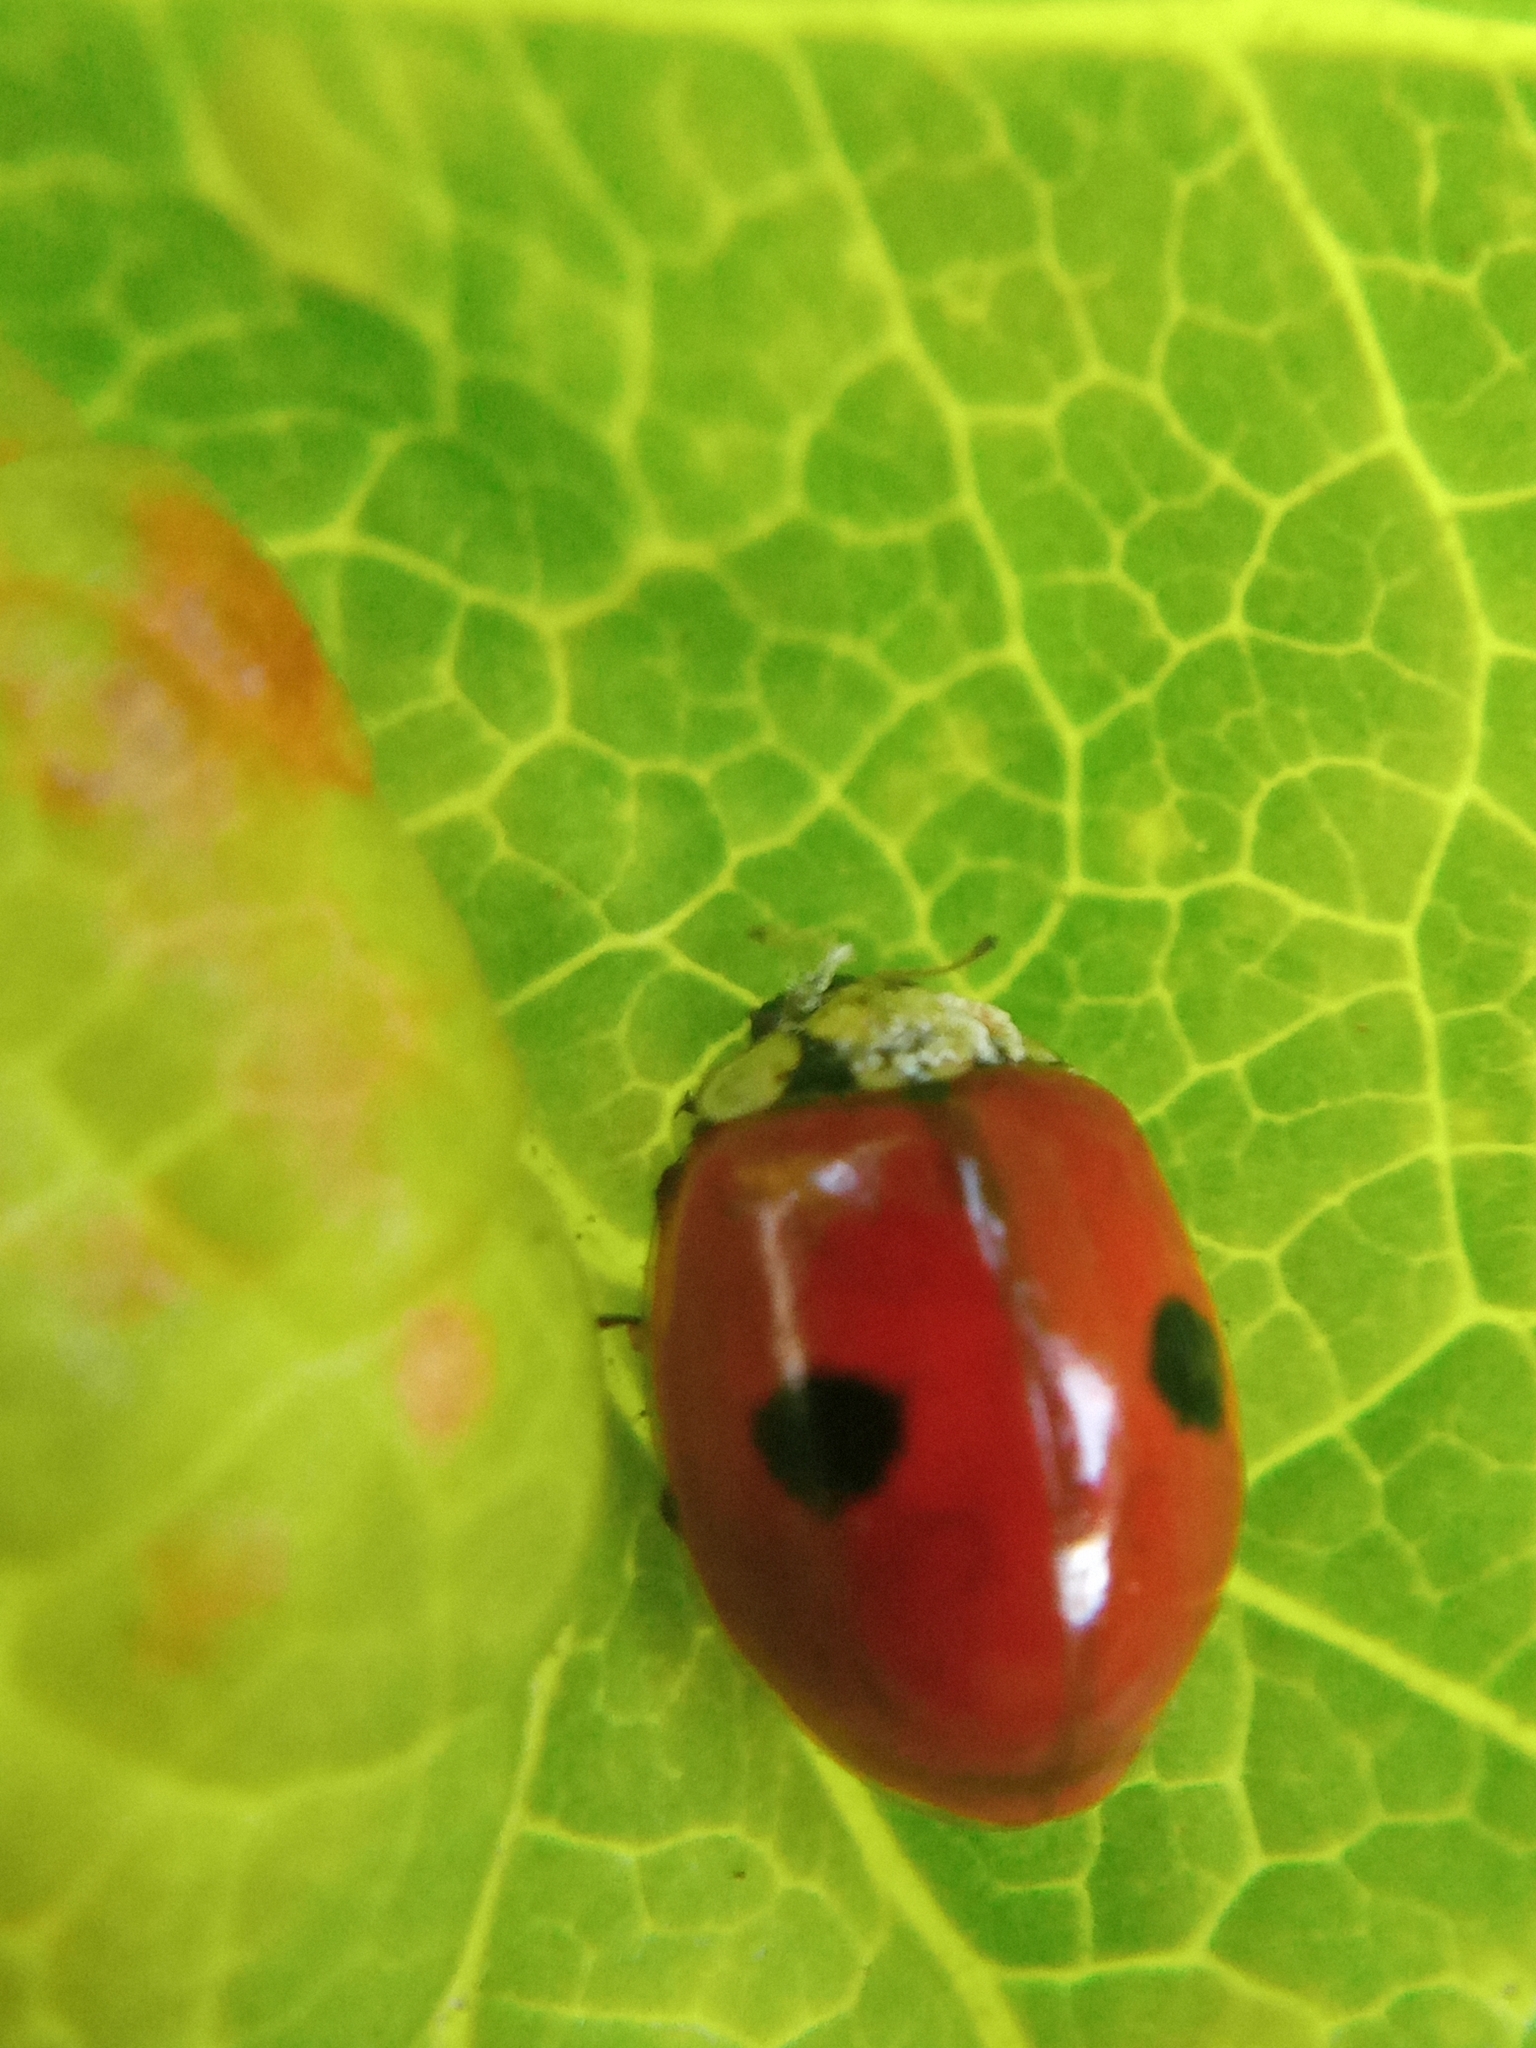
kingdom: Animalia
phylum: Arthropoda
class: Insecta
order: Coleoptera
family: Coccinellidae
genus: Adalia
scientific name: Adalia bipunctata
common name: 2-spot ladybird
